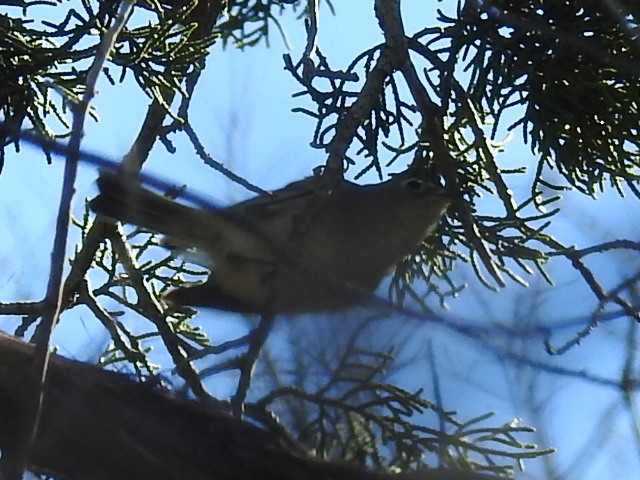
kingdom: Animalia
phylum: Chordata
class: Aves
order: Passeriformes
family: Regulidae
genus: Regulus
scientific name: Regulus calendula
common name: Ruby-crowned kinglet
